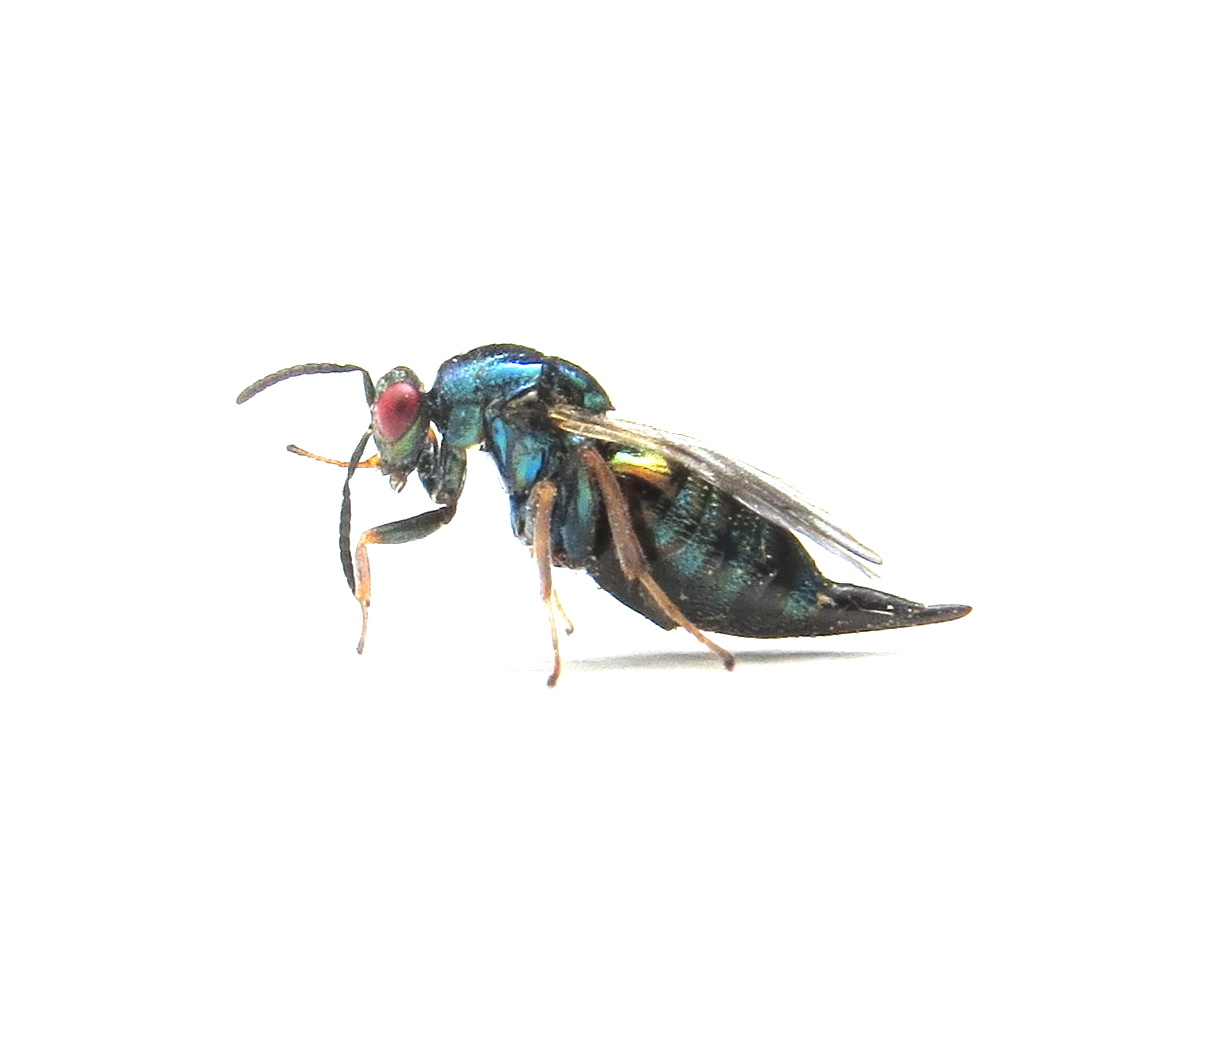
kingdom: Animalia
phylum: Arthropoda
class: Insecta
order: Hymenoptera
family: Ormyridae
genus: Ormyrus
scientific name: Ormyrus nitidulus
